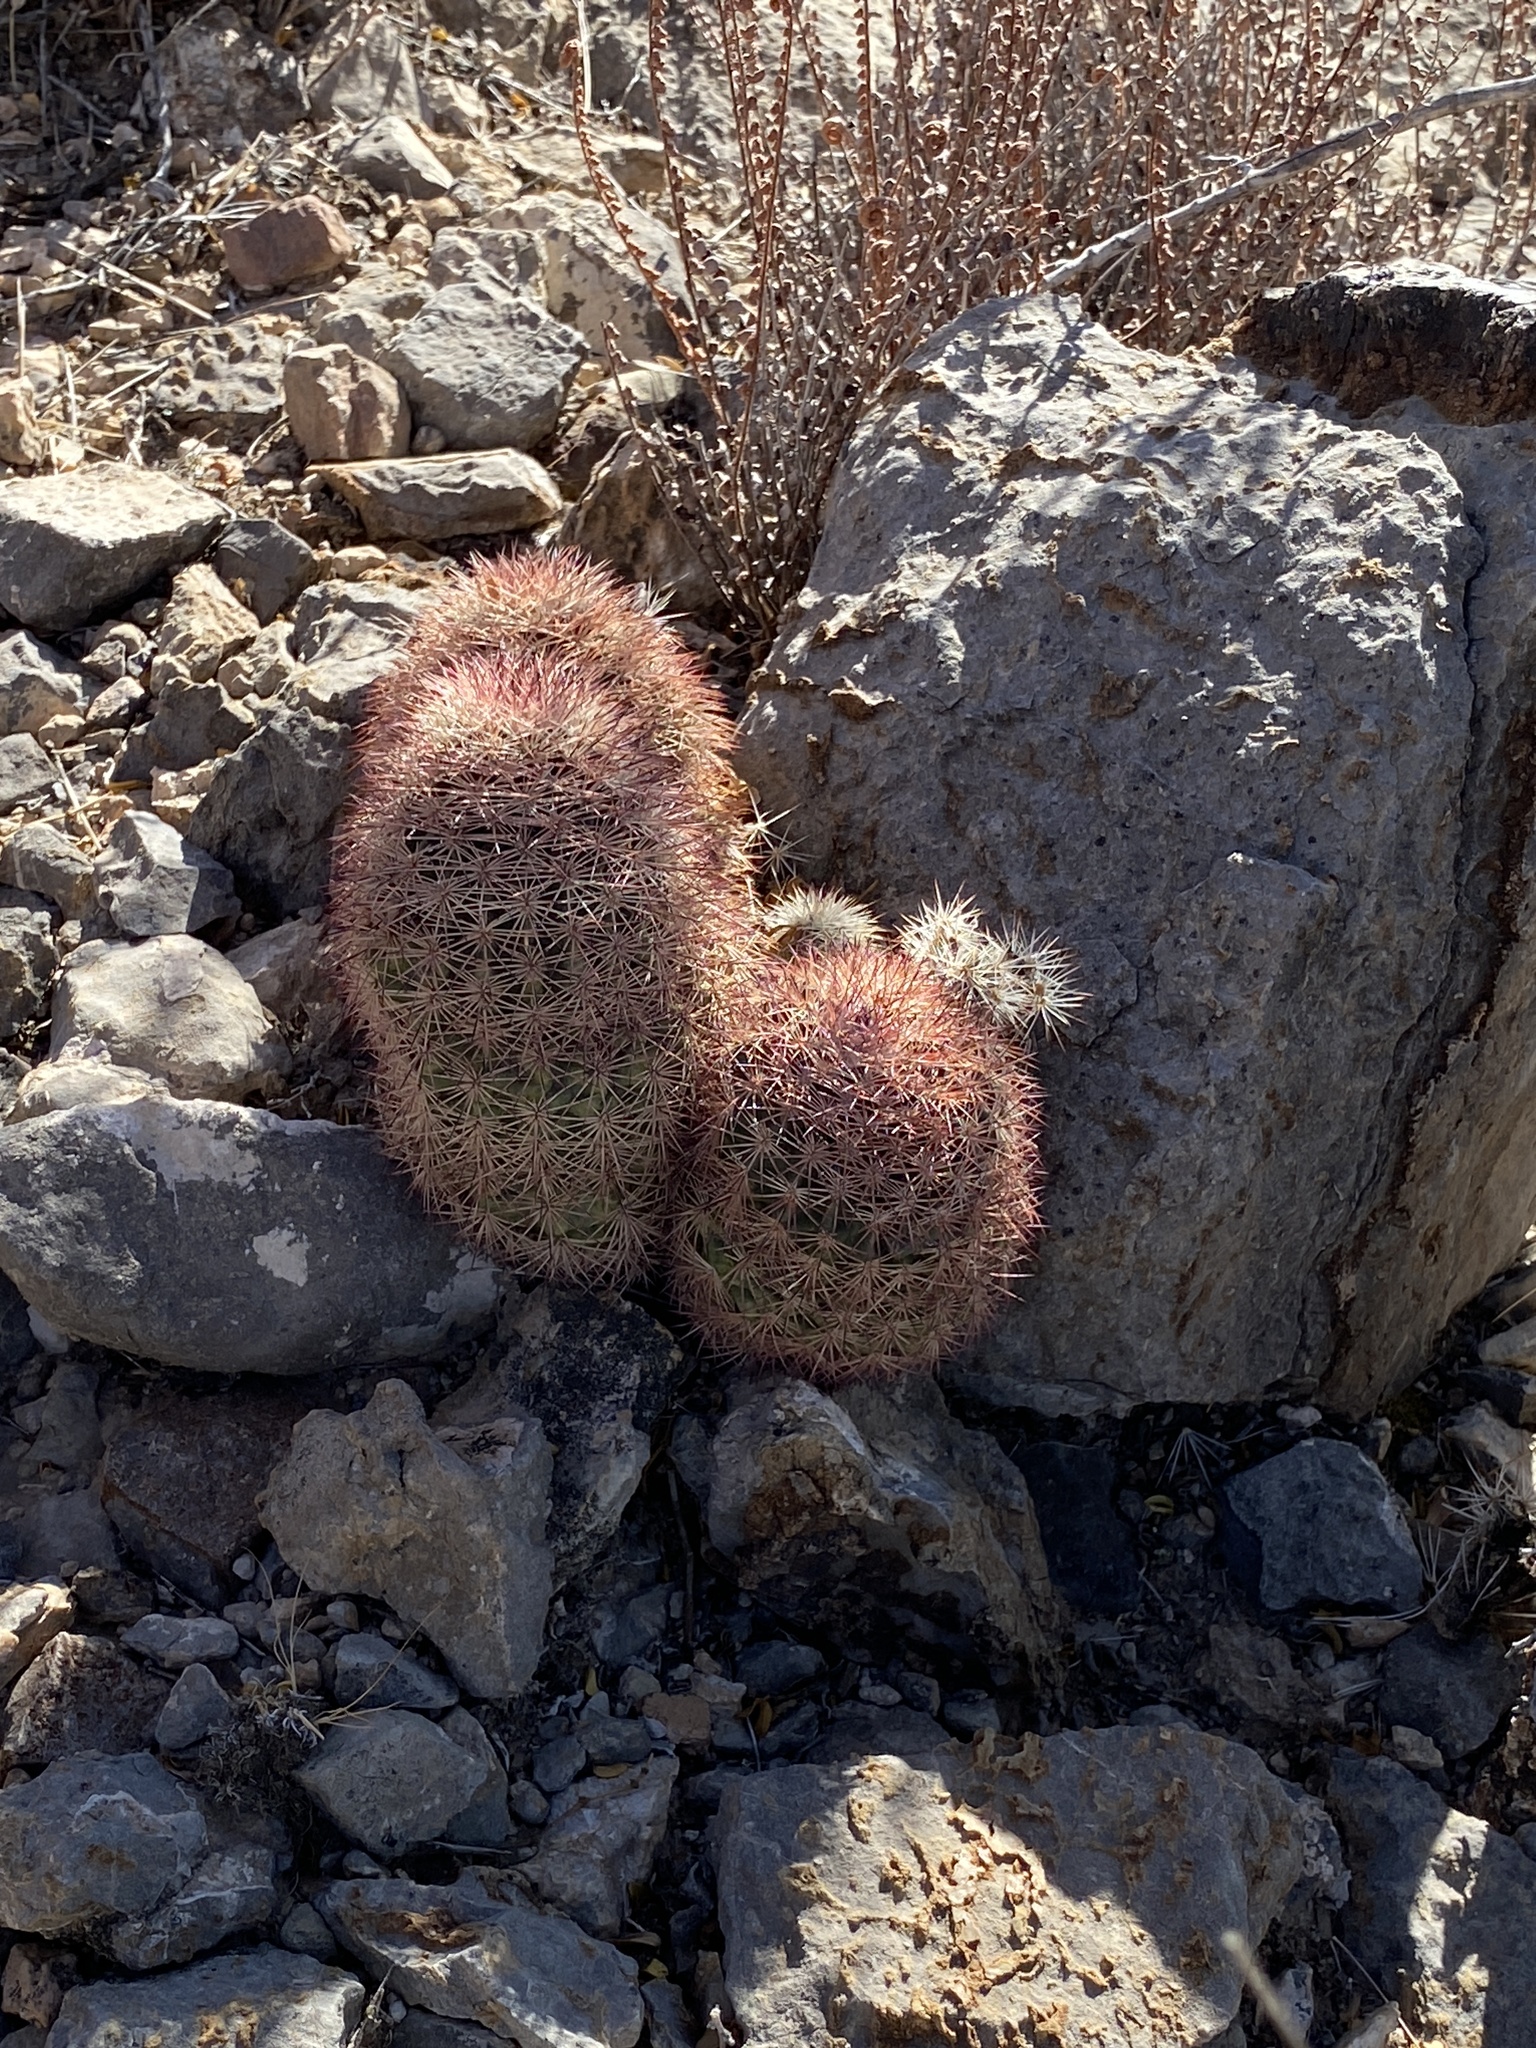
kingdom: Plantae
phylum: Tracheophyta
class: Magnoliopsida
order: Caryophyllales
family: Cactaceae
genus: Echinocereus
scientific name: Echinocereus dasyacanthus
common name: Spiny hedgehog cactus
